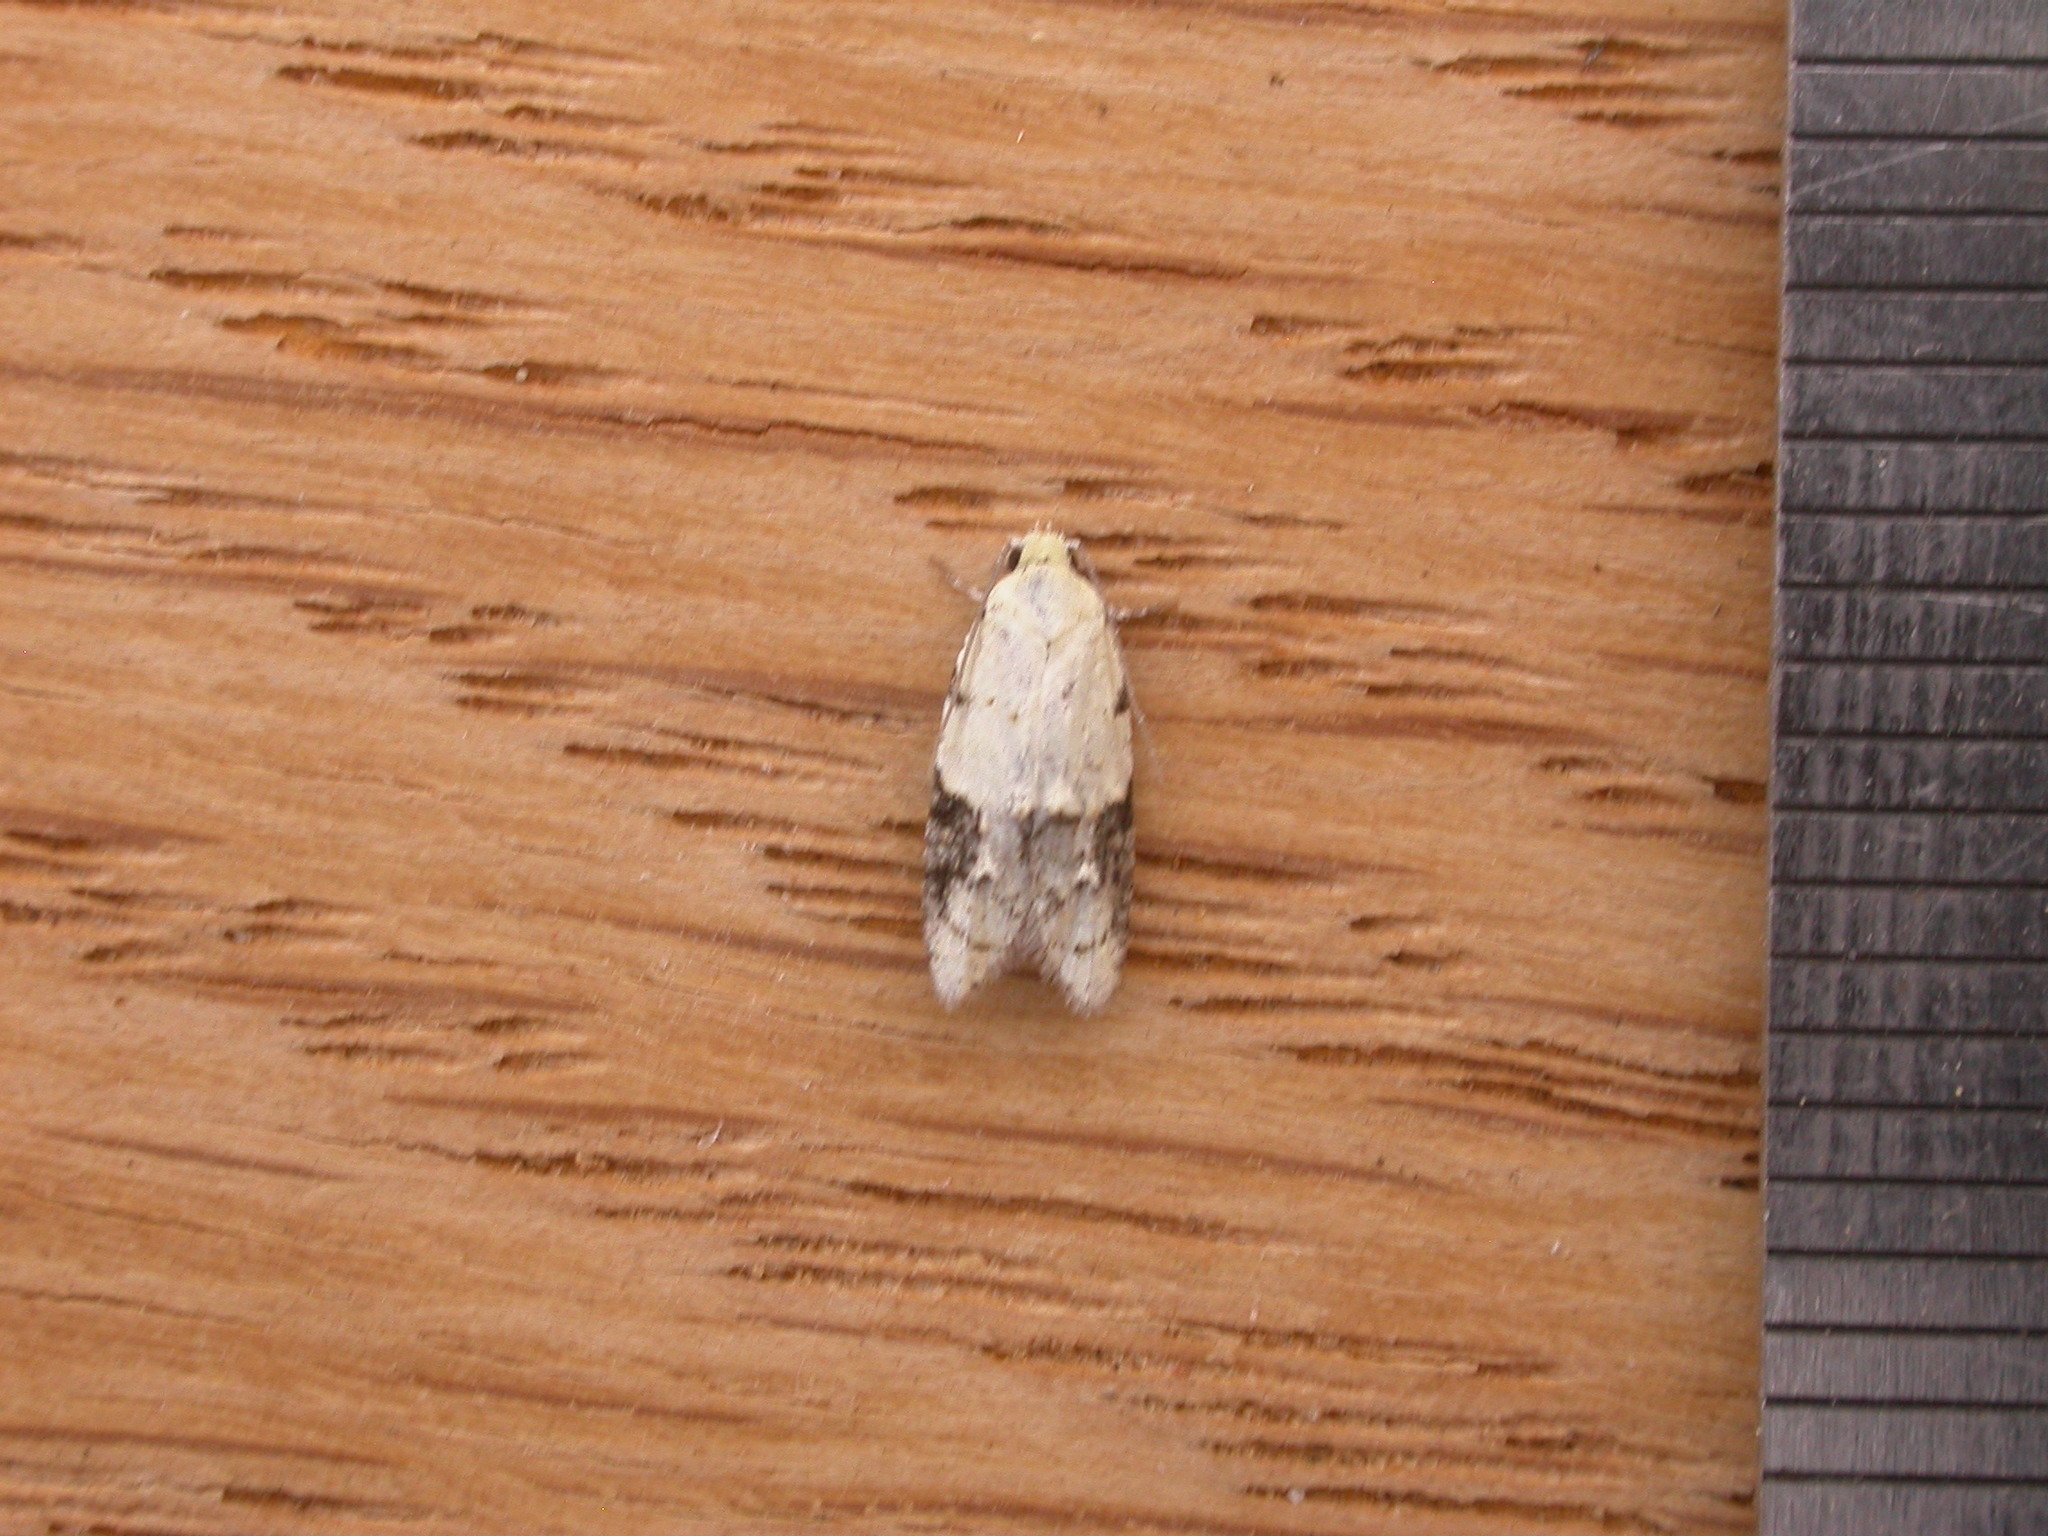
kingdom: Animalia
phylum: Arthropoda
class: Insecta
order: Lepidoptera
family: Tortricidae
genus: Tracholena
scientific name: Tracholena sulfurosa
